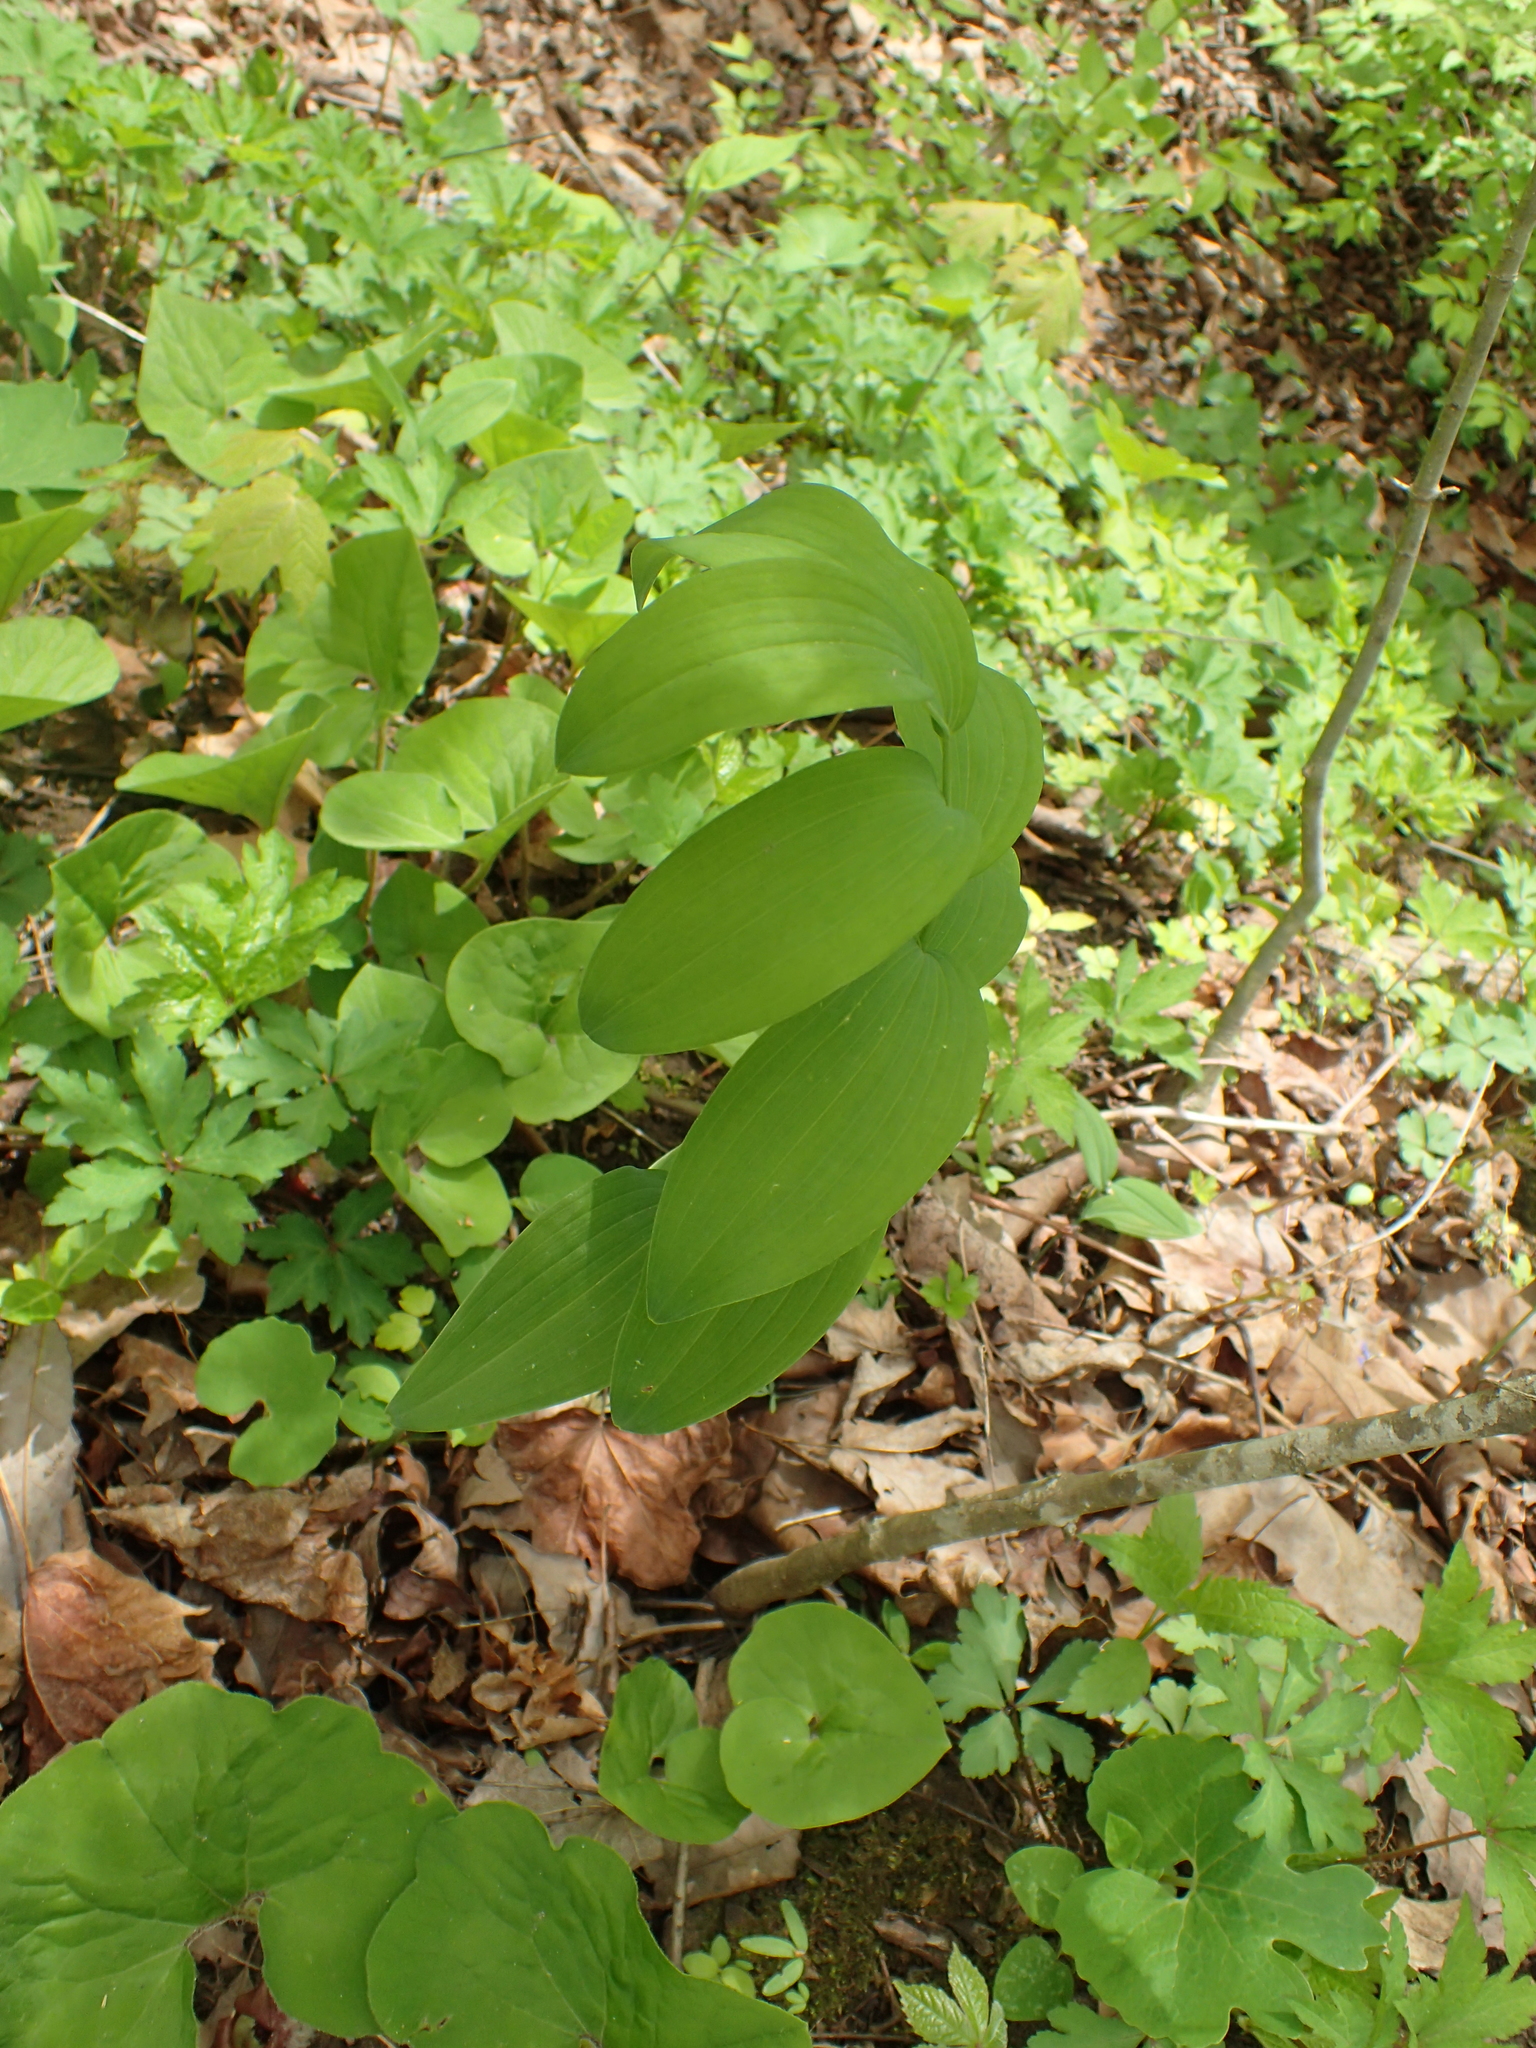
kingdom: Plantae
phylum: Tracheophyta
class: Liliopsida
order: Asparagales
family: Asparagaceae
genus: Polygonatum
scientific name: Polygonatum biflorum
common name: American solomon's-seal
